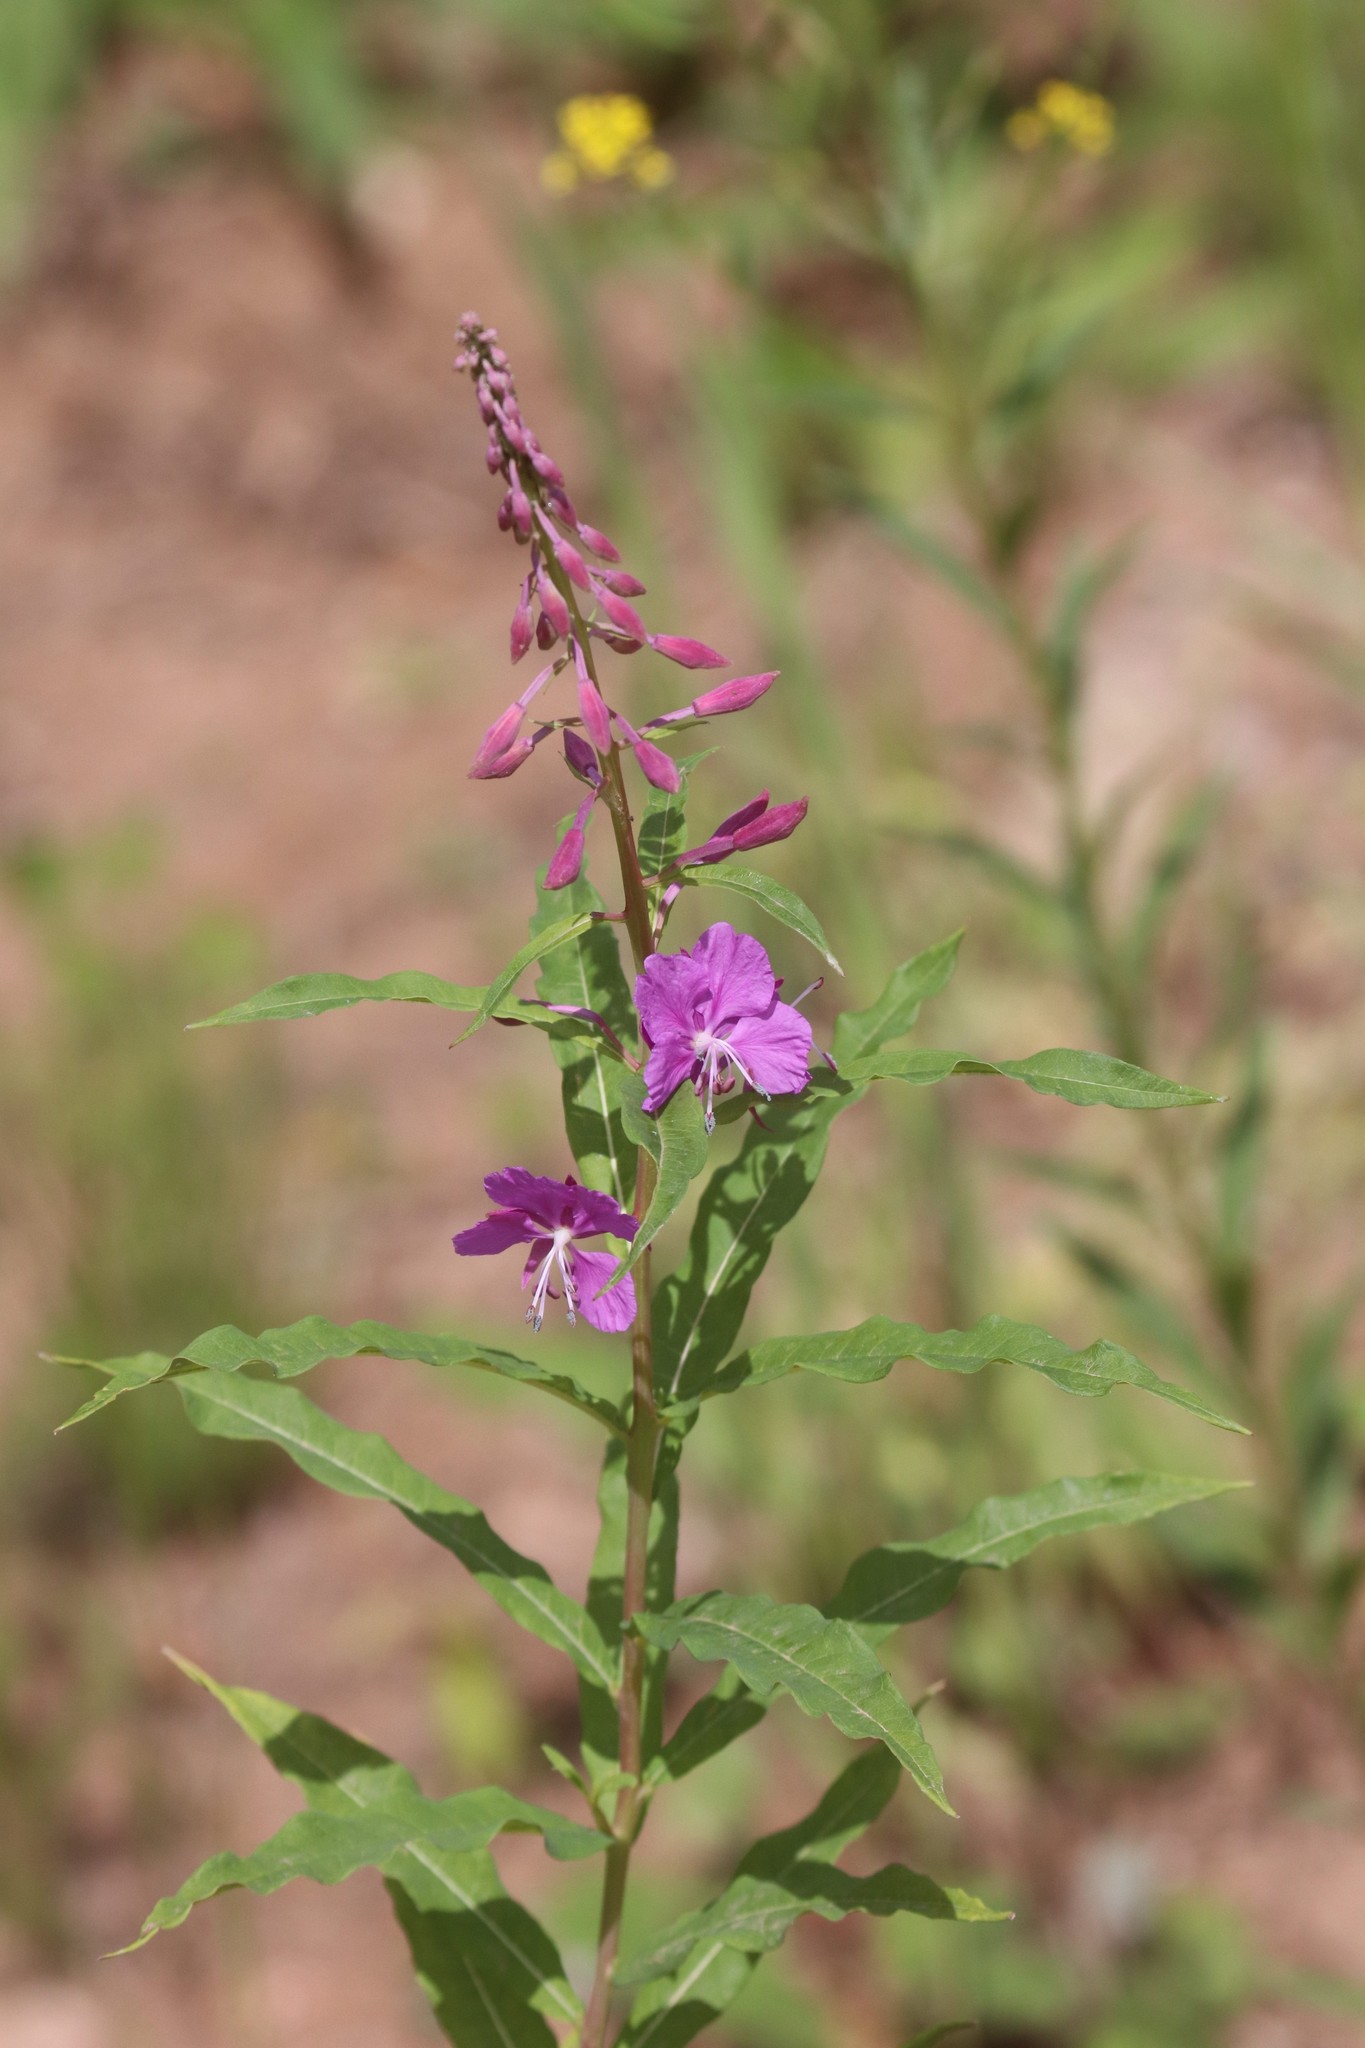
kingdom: Plantae
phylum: Tracheophyta
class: Magnoliopsida
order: Myrtales
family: Onagraceae
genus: Chamaenerion
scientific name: Chamaenerion angustifolium
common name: Fireweed
